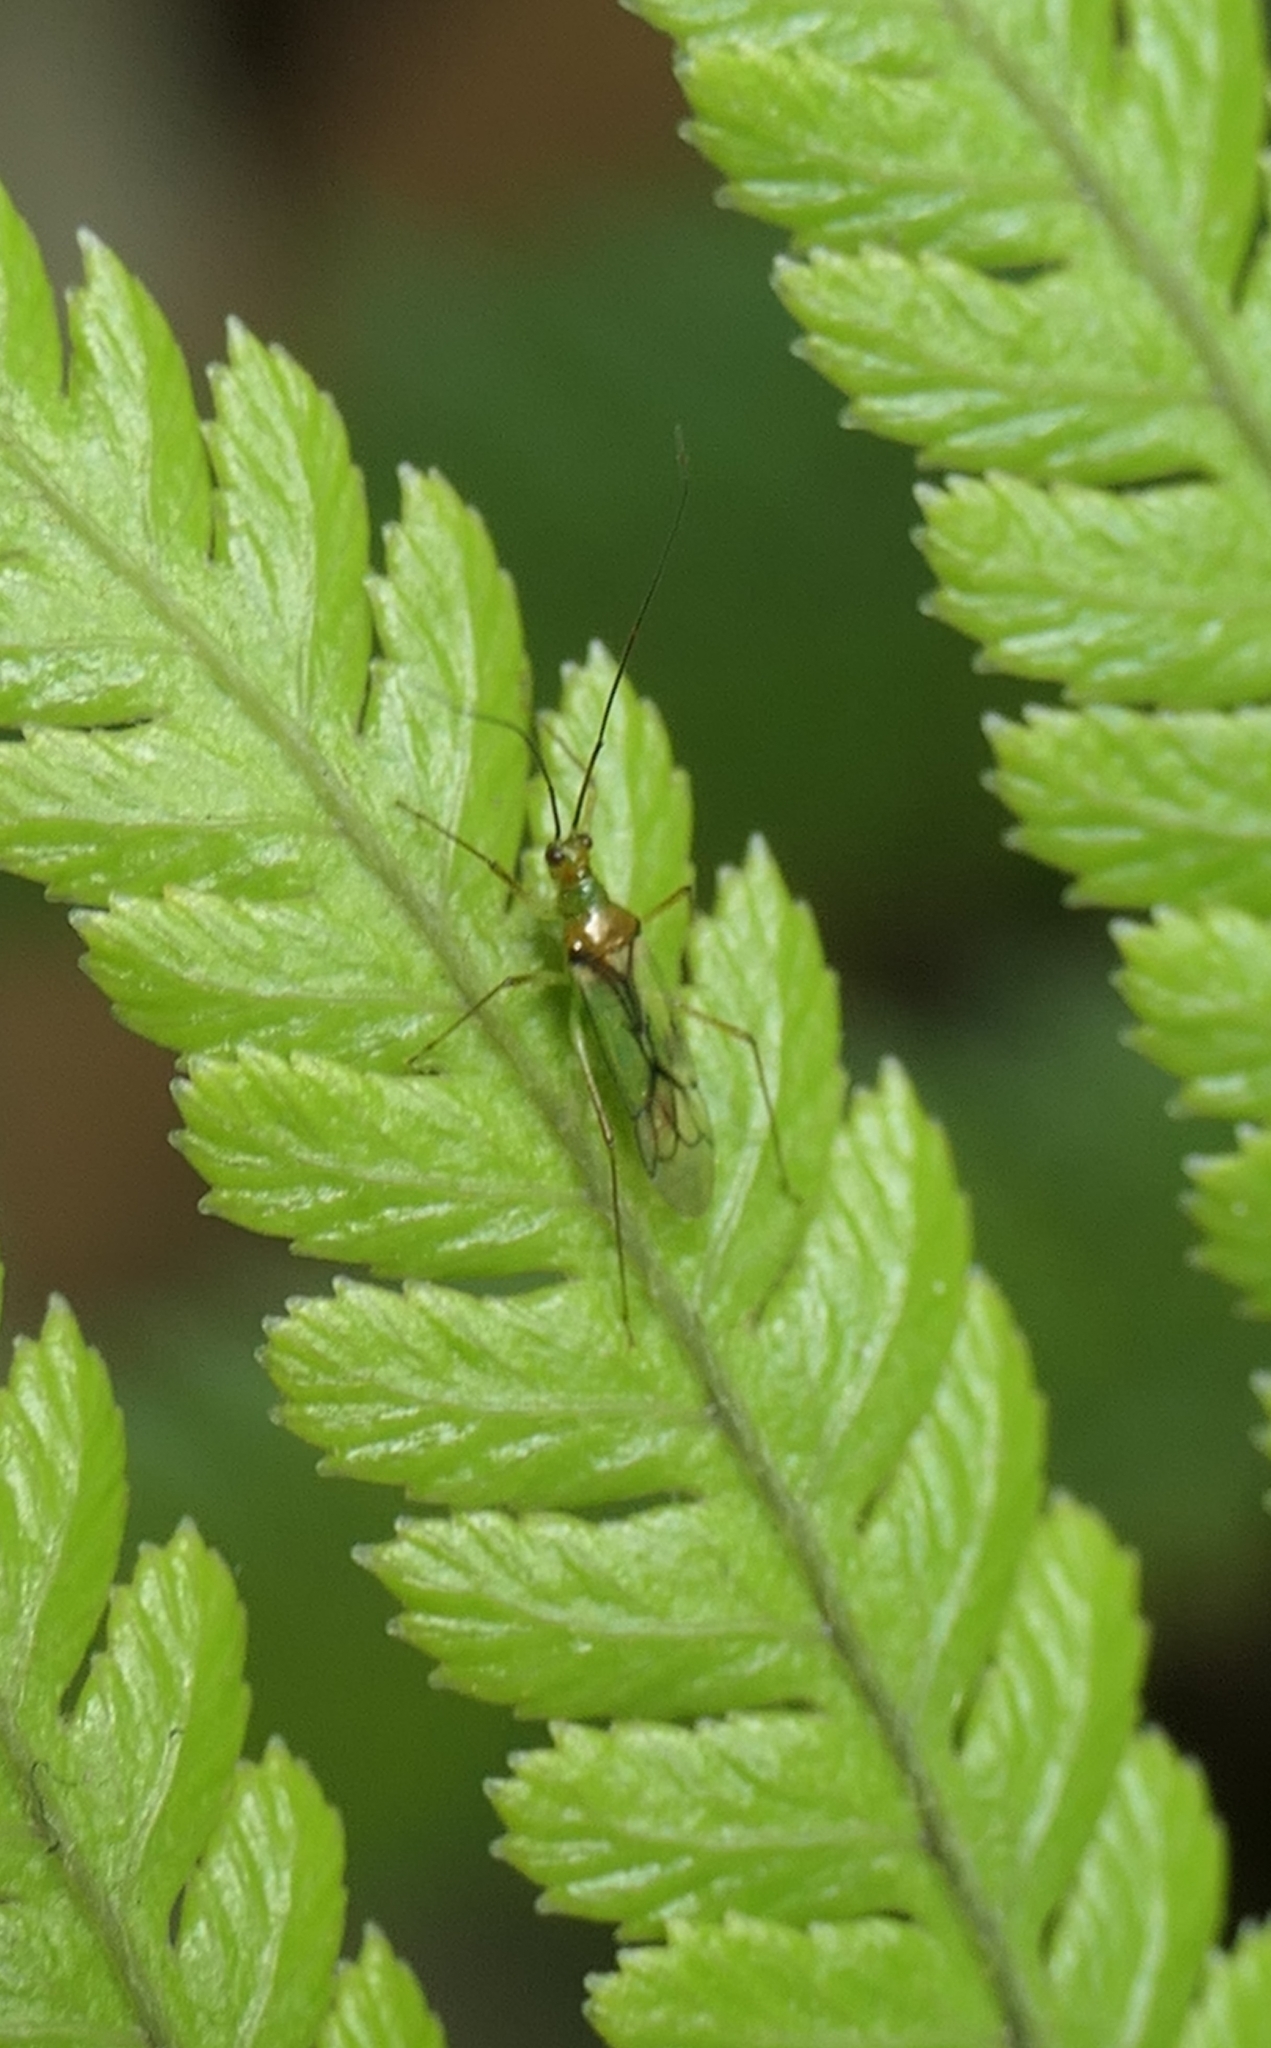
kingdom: Animalia
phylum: Arthropoda
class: Insecta
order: Hemiptera
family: Miridae
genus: Felisacus
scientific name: Felisacus elegantulus
